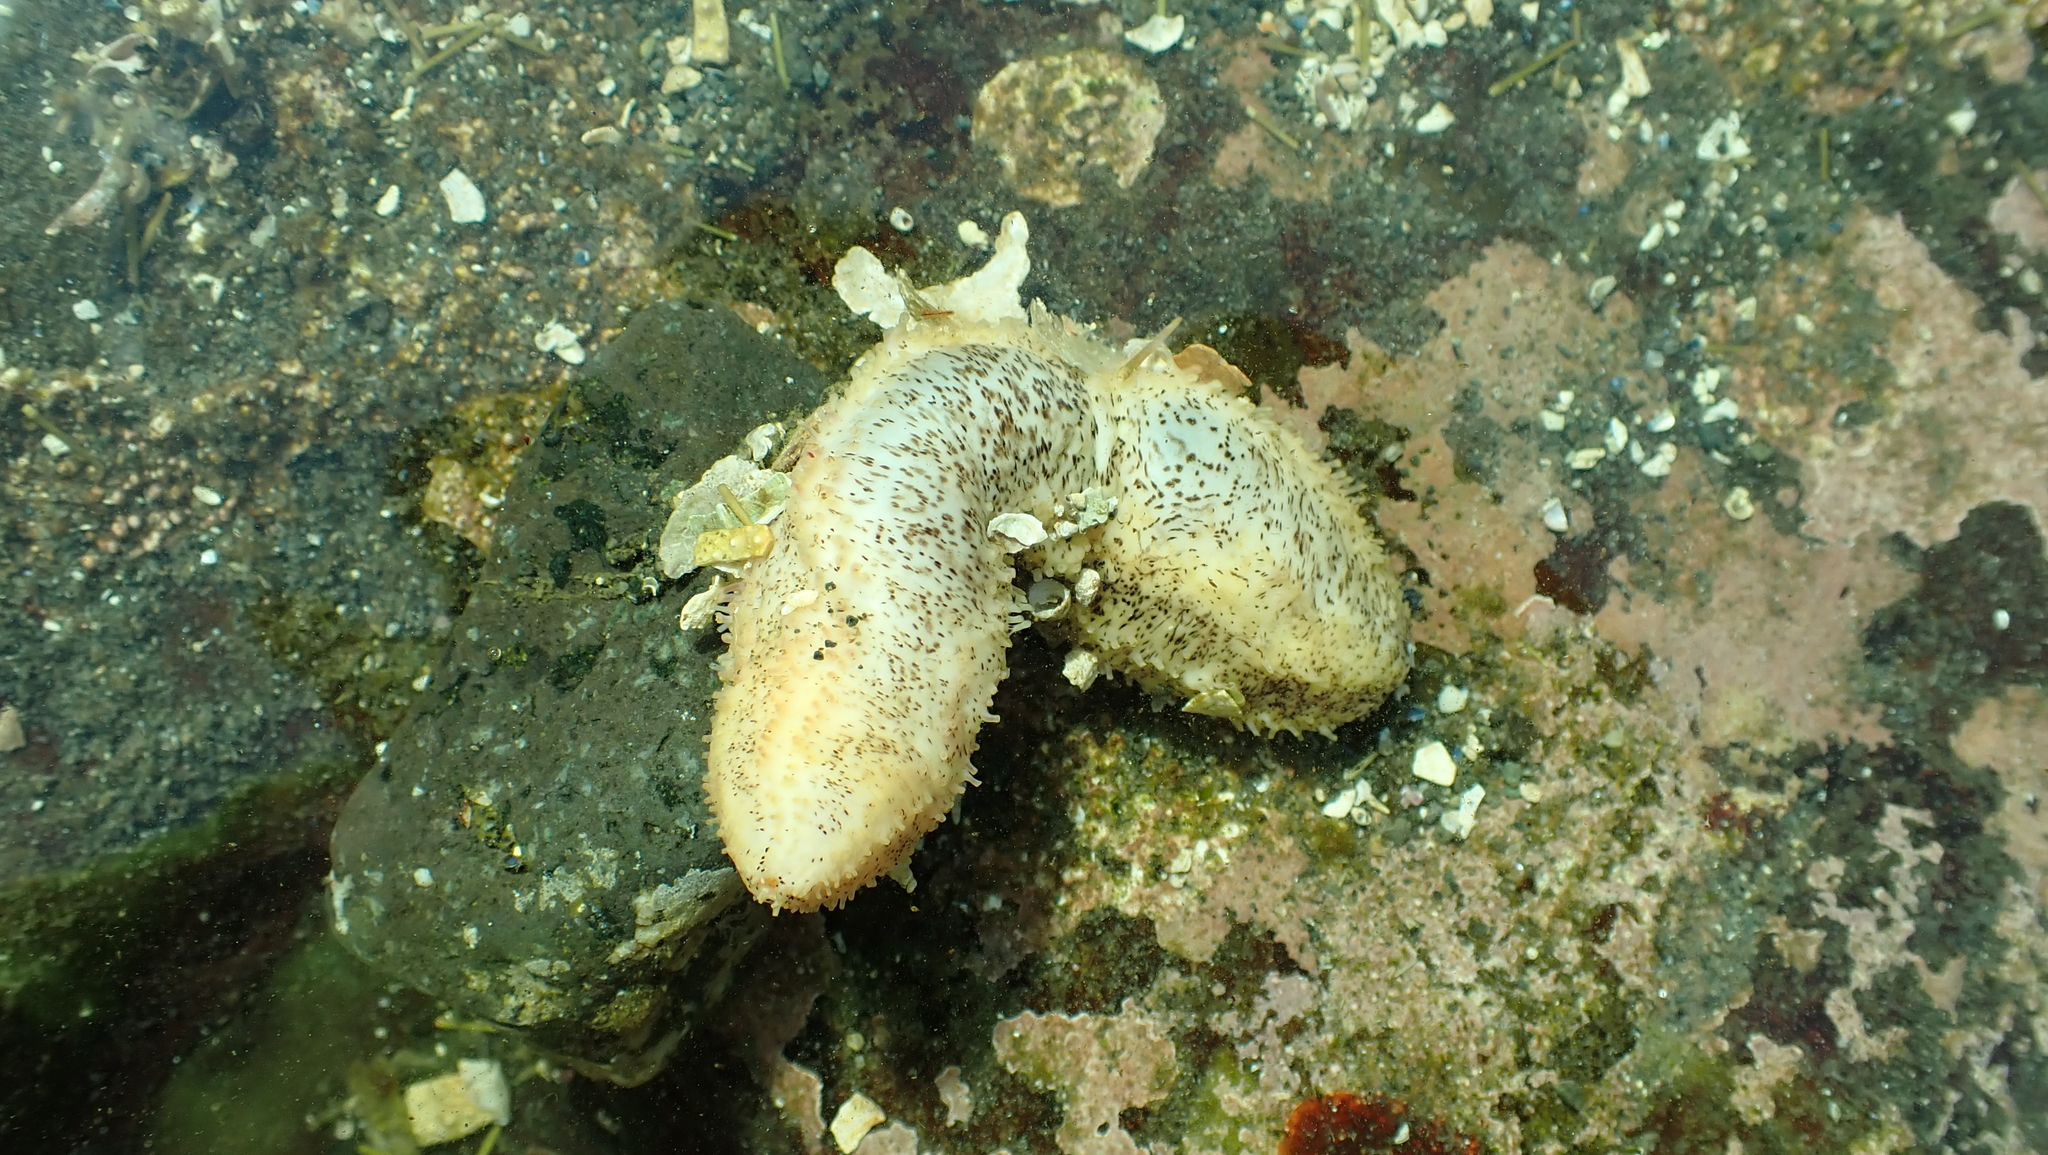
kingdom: Animalia
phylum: Echinodermata
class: Holothuroidea
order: Dendrochirotida
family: Cucumariidae
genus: Cucumaria
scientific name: Cucumaria piperata
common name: Peppered sea cucumber
